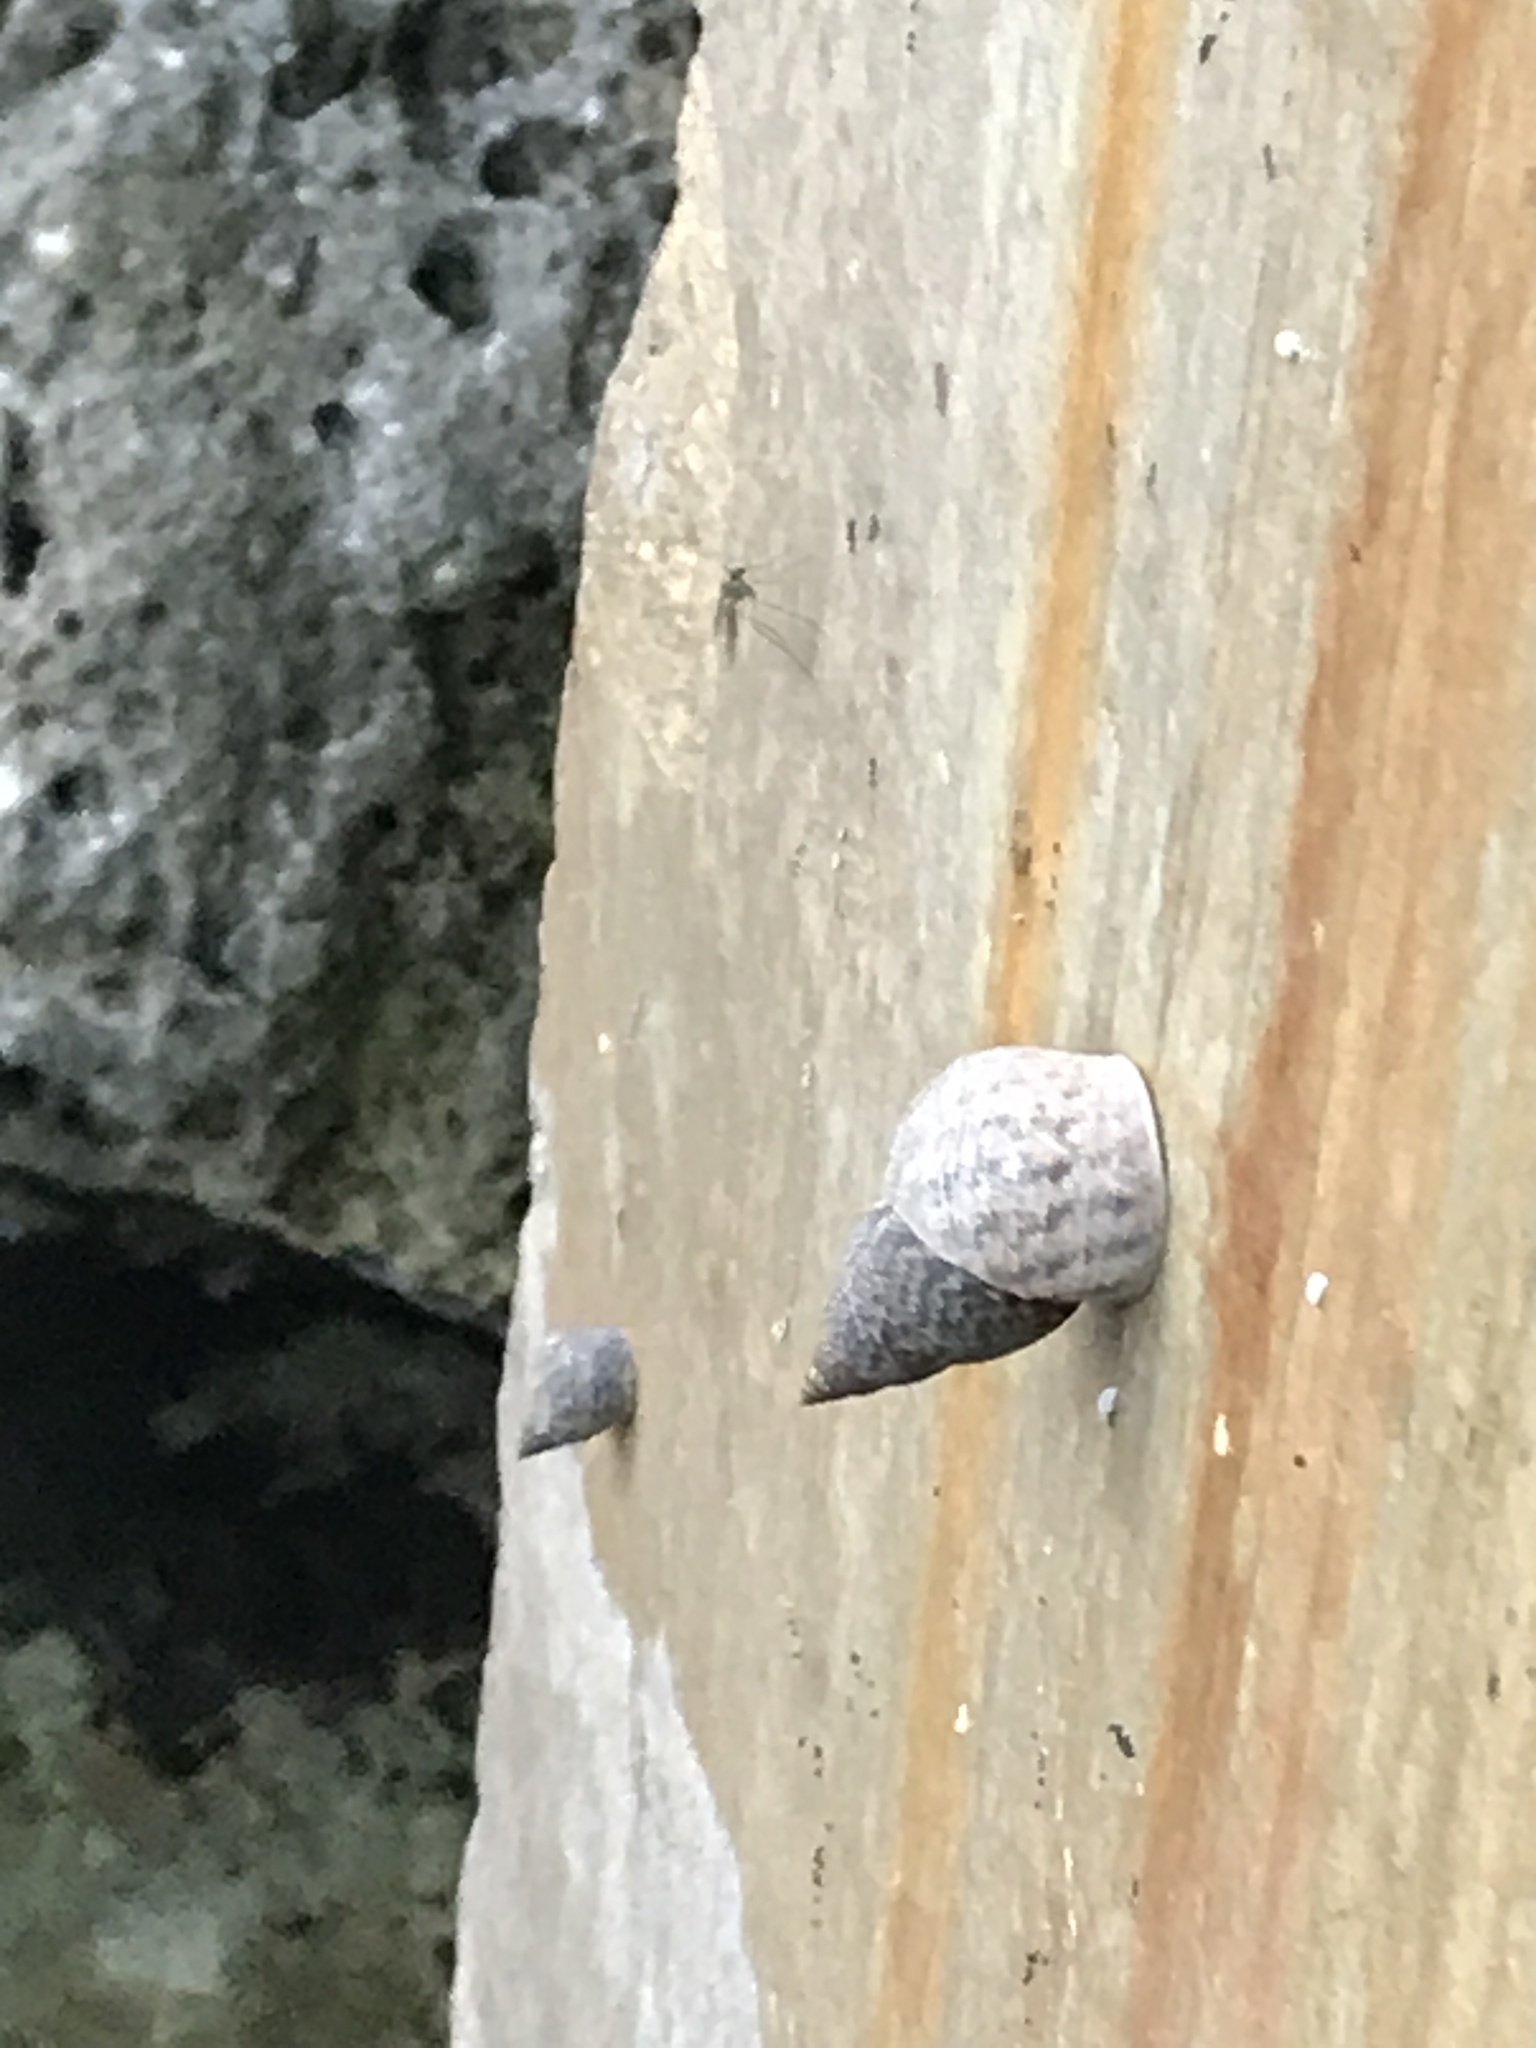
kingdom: Animalia
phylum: Mollusca
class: Gastropoda
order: Littorinimorpha
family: Littorinidae
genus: Littoraria
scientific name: Littoraria angulifera
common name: Mangrove periwinkle
